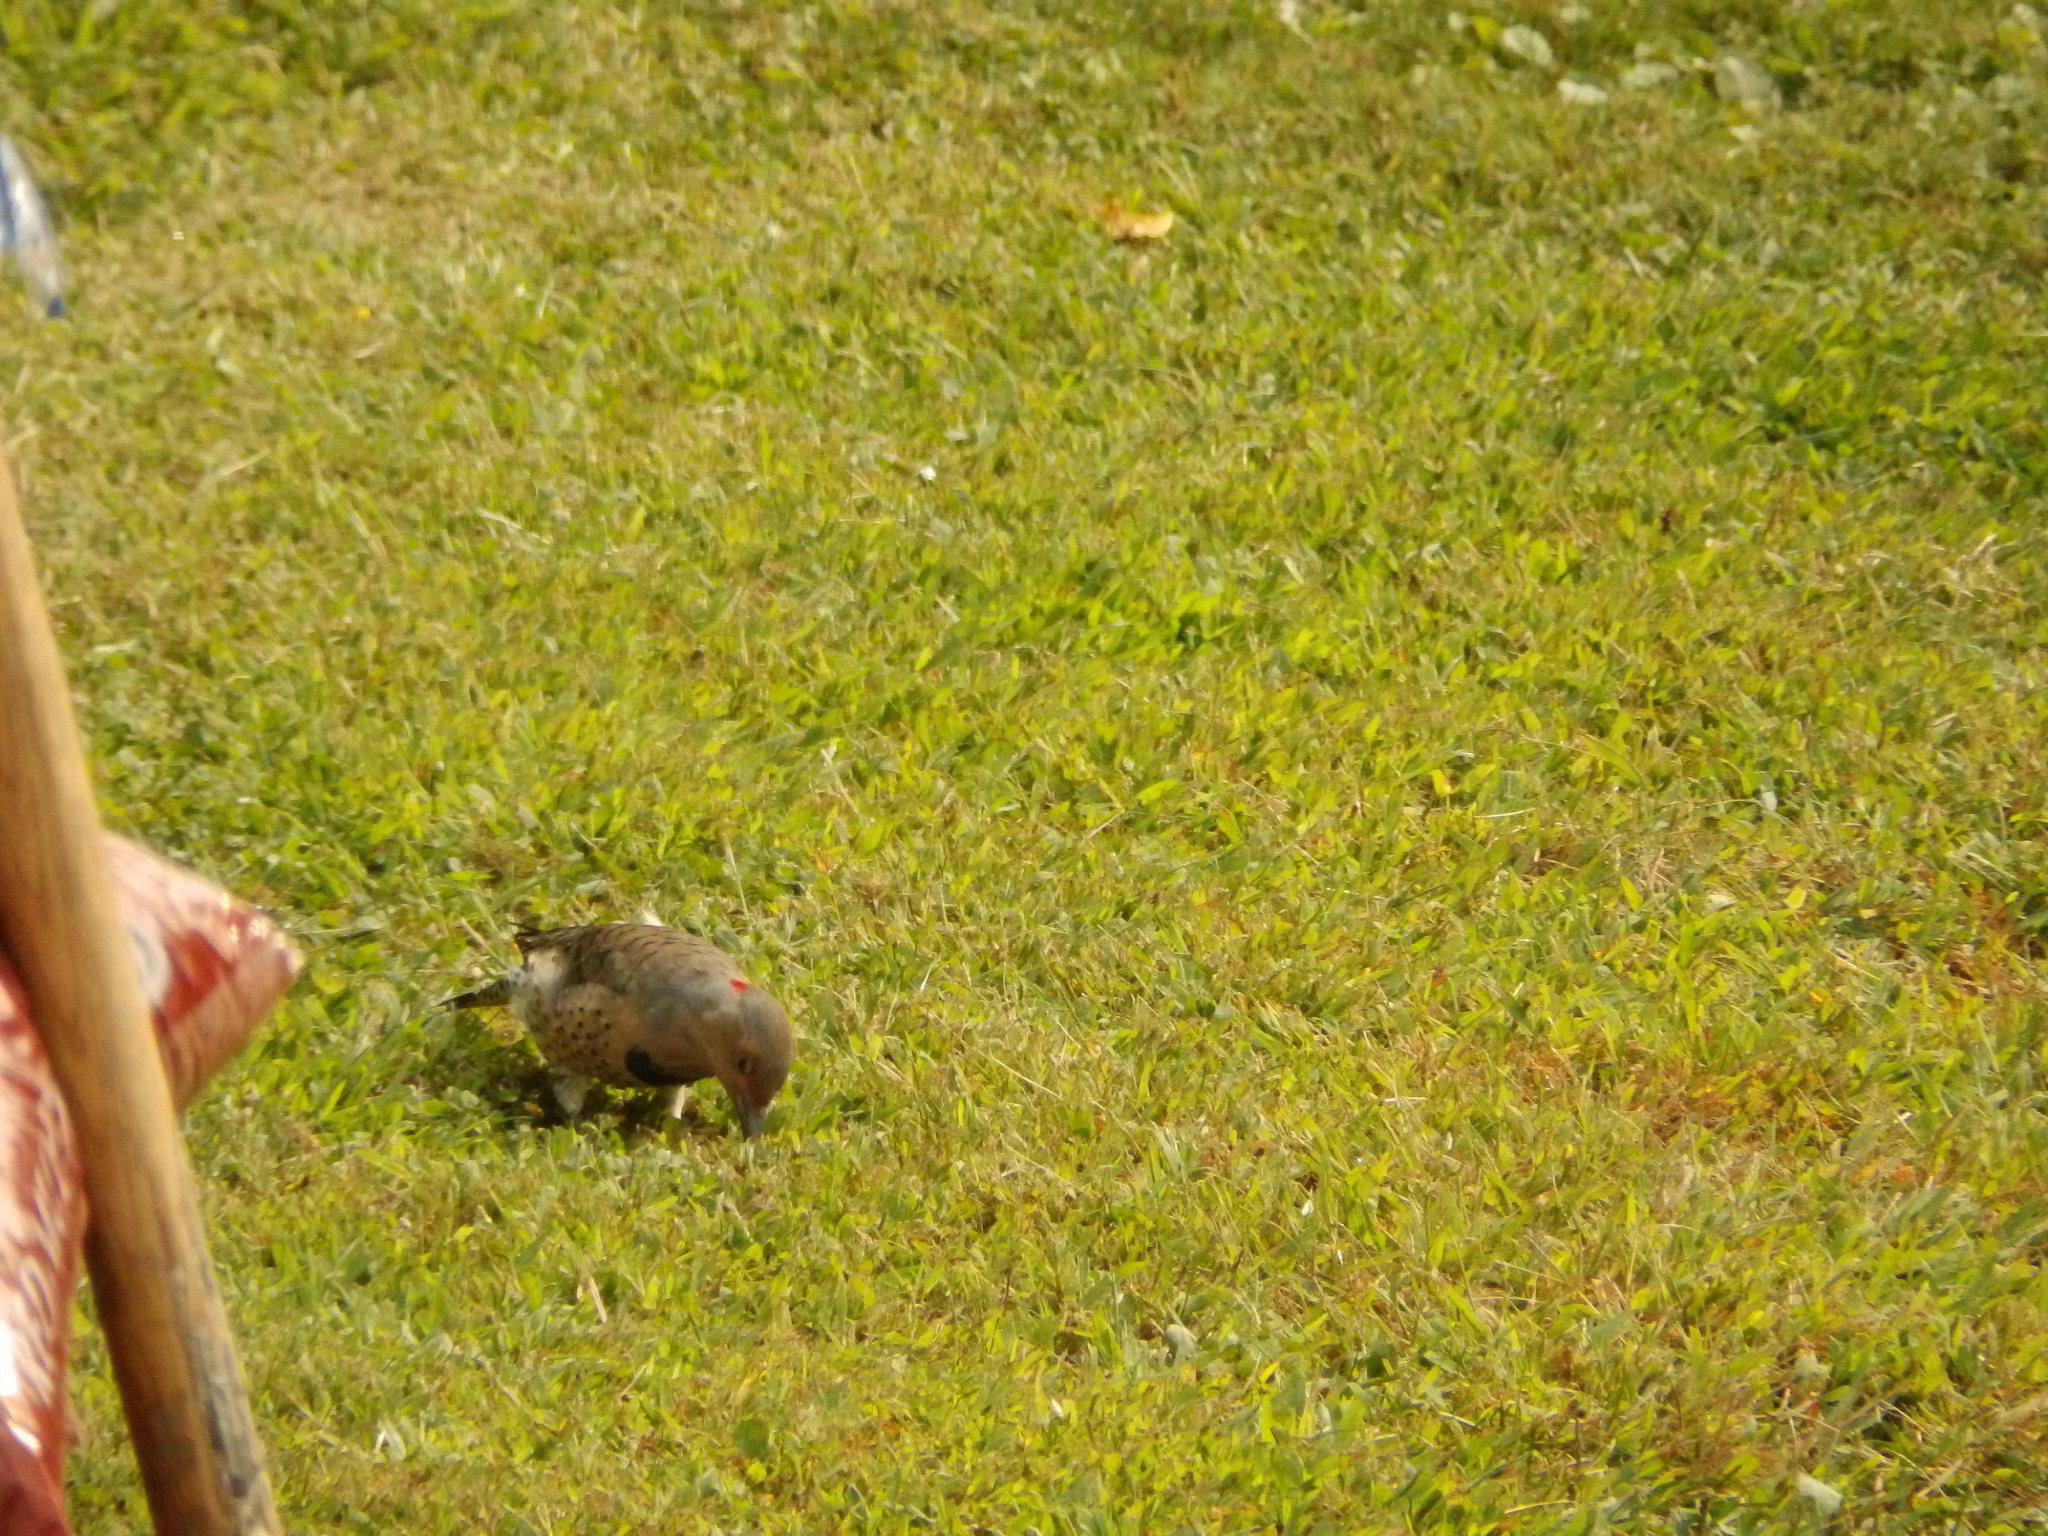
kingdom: Animalia
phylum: Chordata
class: Aves
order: Piciformes
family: Picidae
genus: Colaptes
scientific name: Colaptes auratus
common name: Northern flicker
